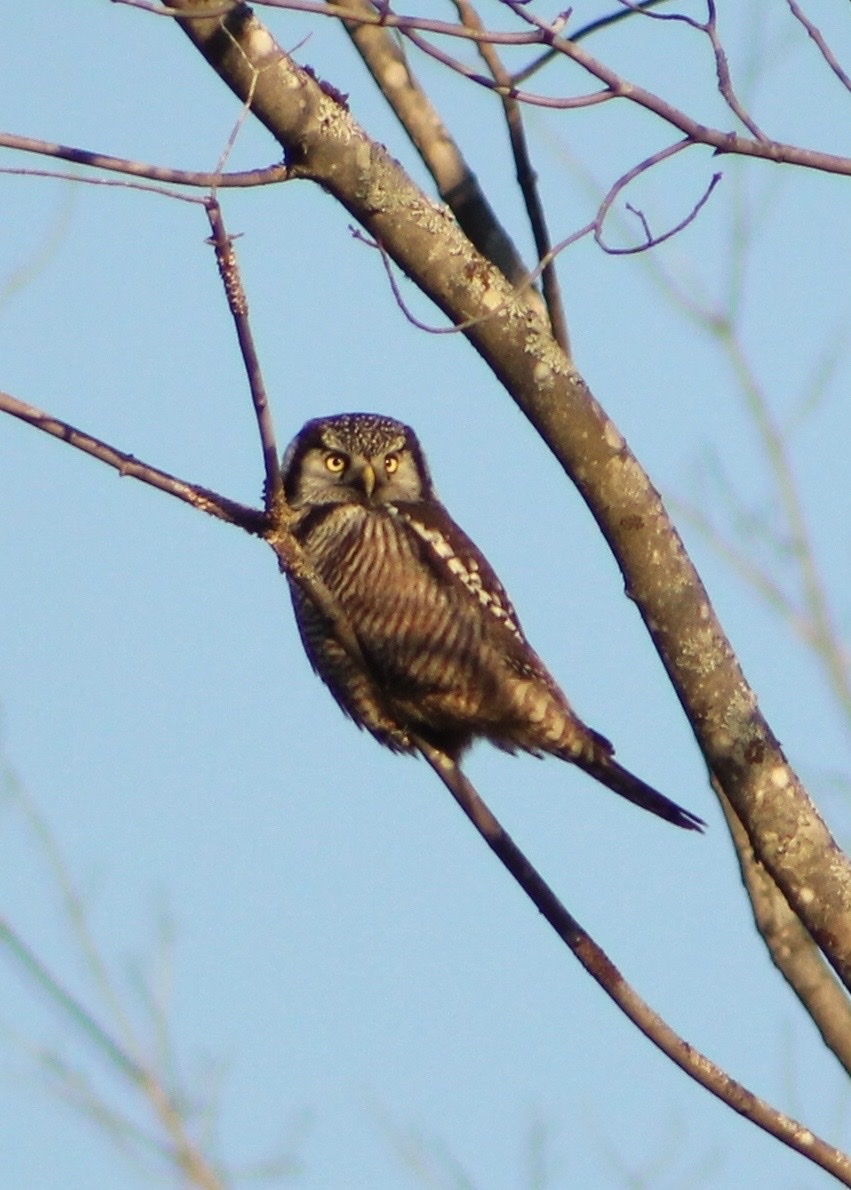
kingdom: Animalia
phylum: Chordata
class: Aves
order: Strigiformes
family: Strigidae
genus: Surnia
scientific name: Surnia ulula
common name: Northern hawk-owl
